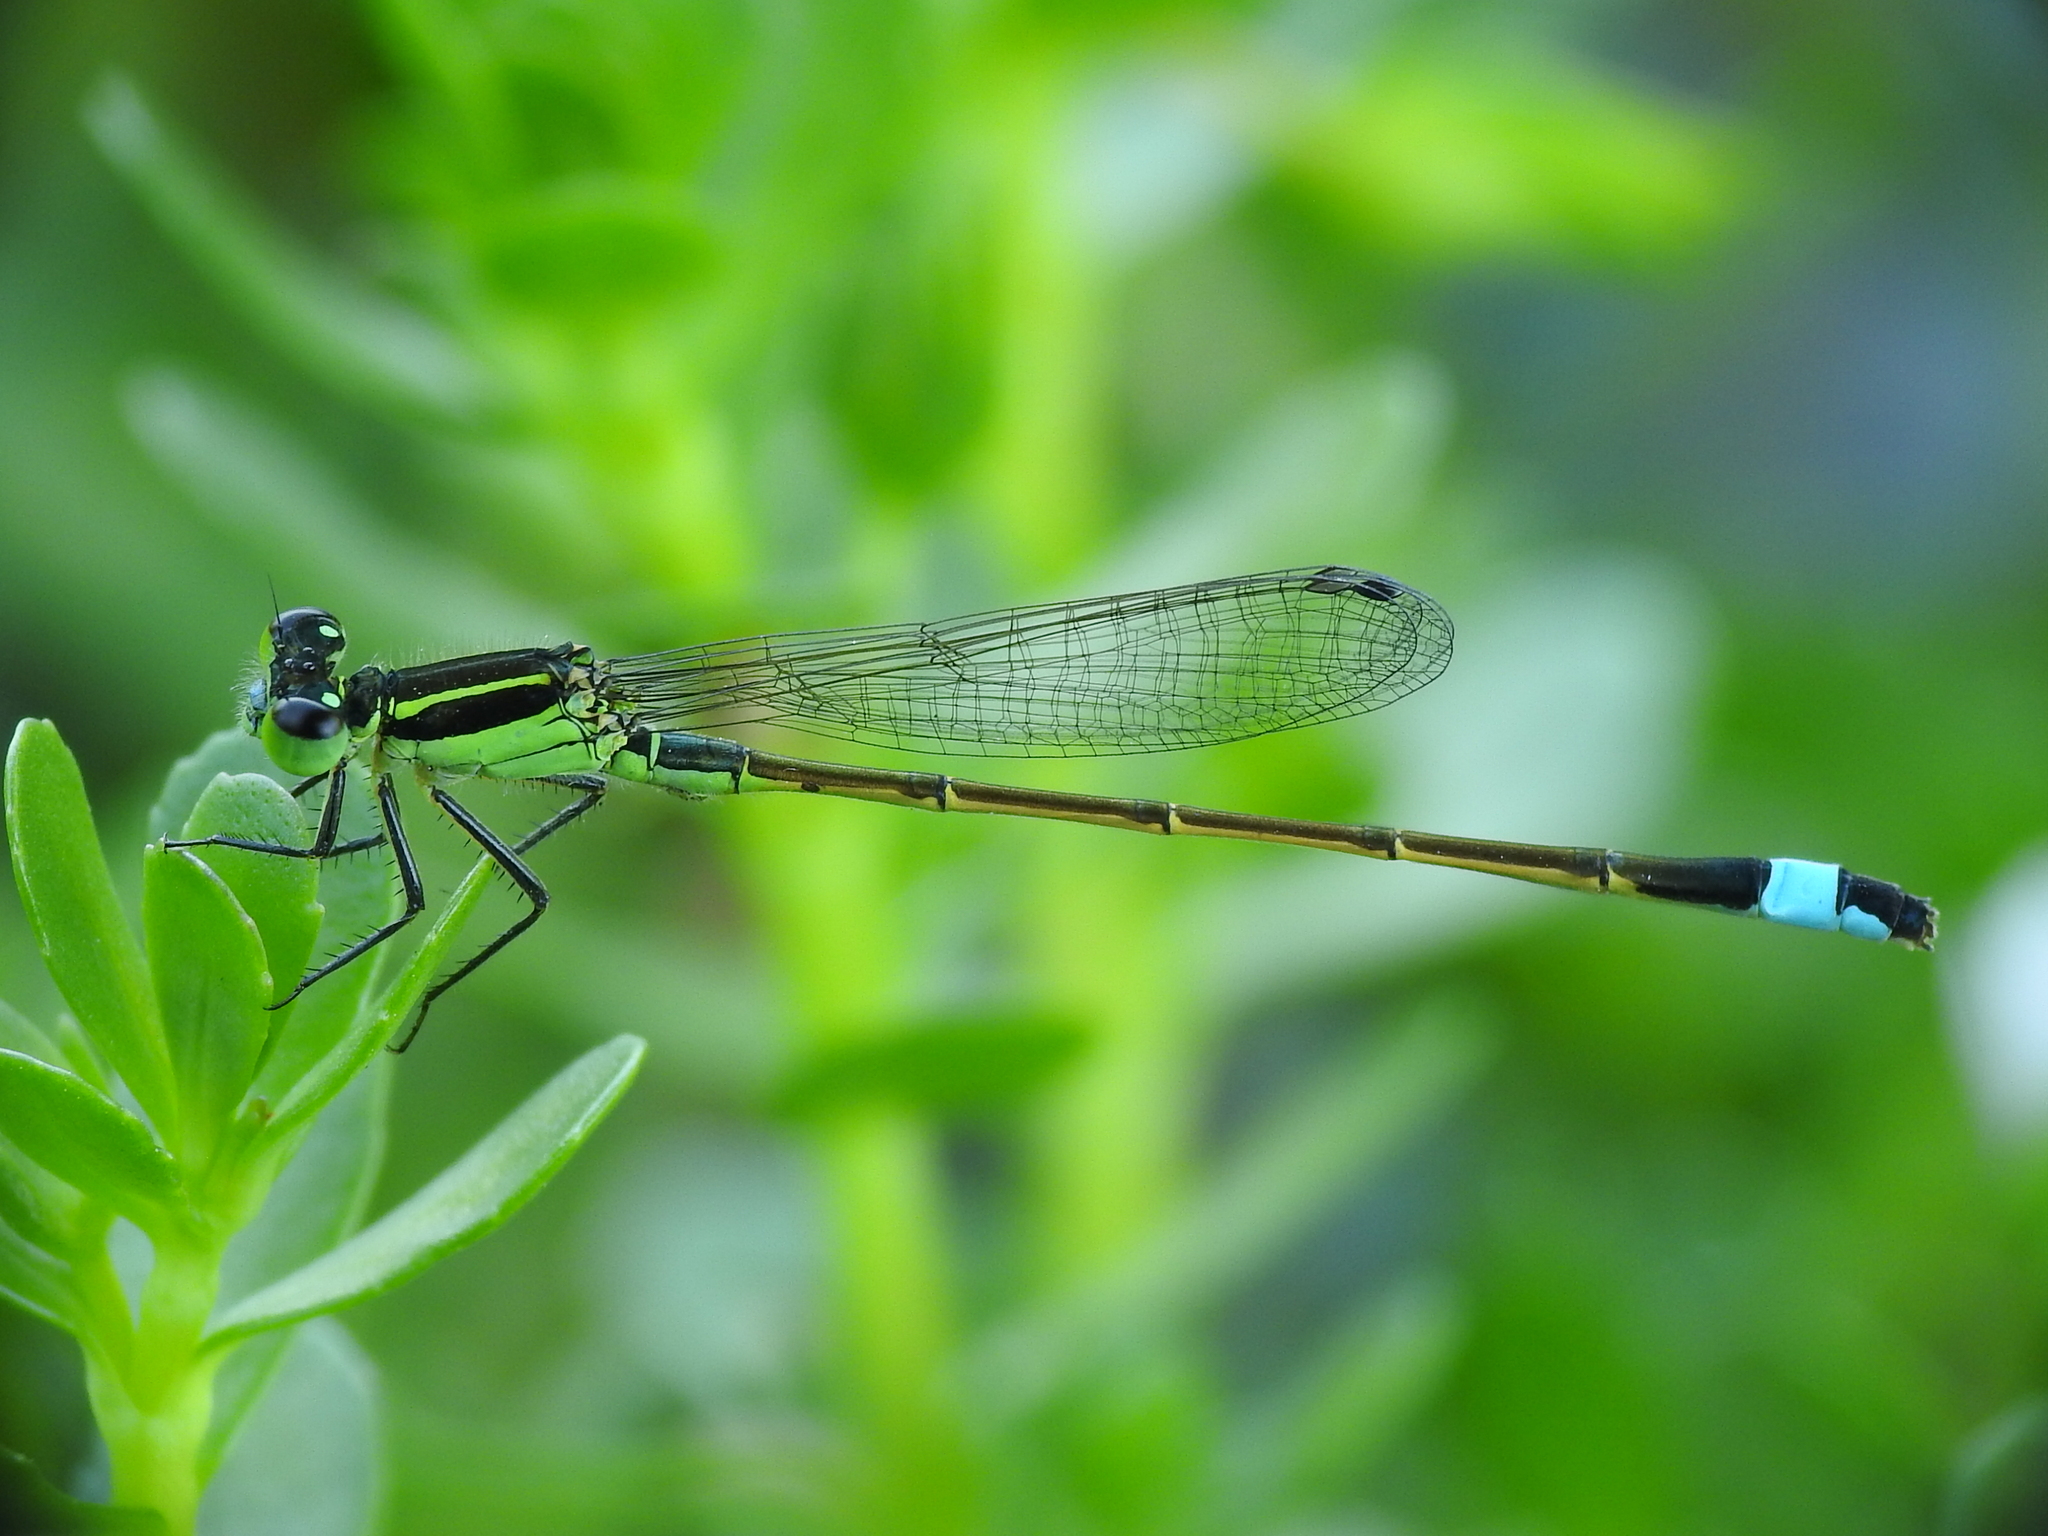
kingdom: Animalia
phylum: Arthropoda
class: Insecta
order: Odonata
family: Coenagrionidae
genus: Ischnura
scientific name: Ischnura ramburii
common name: Rambur's forktail
